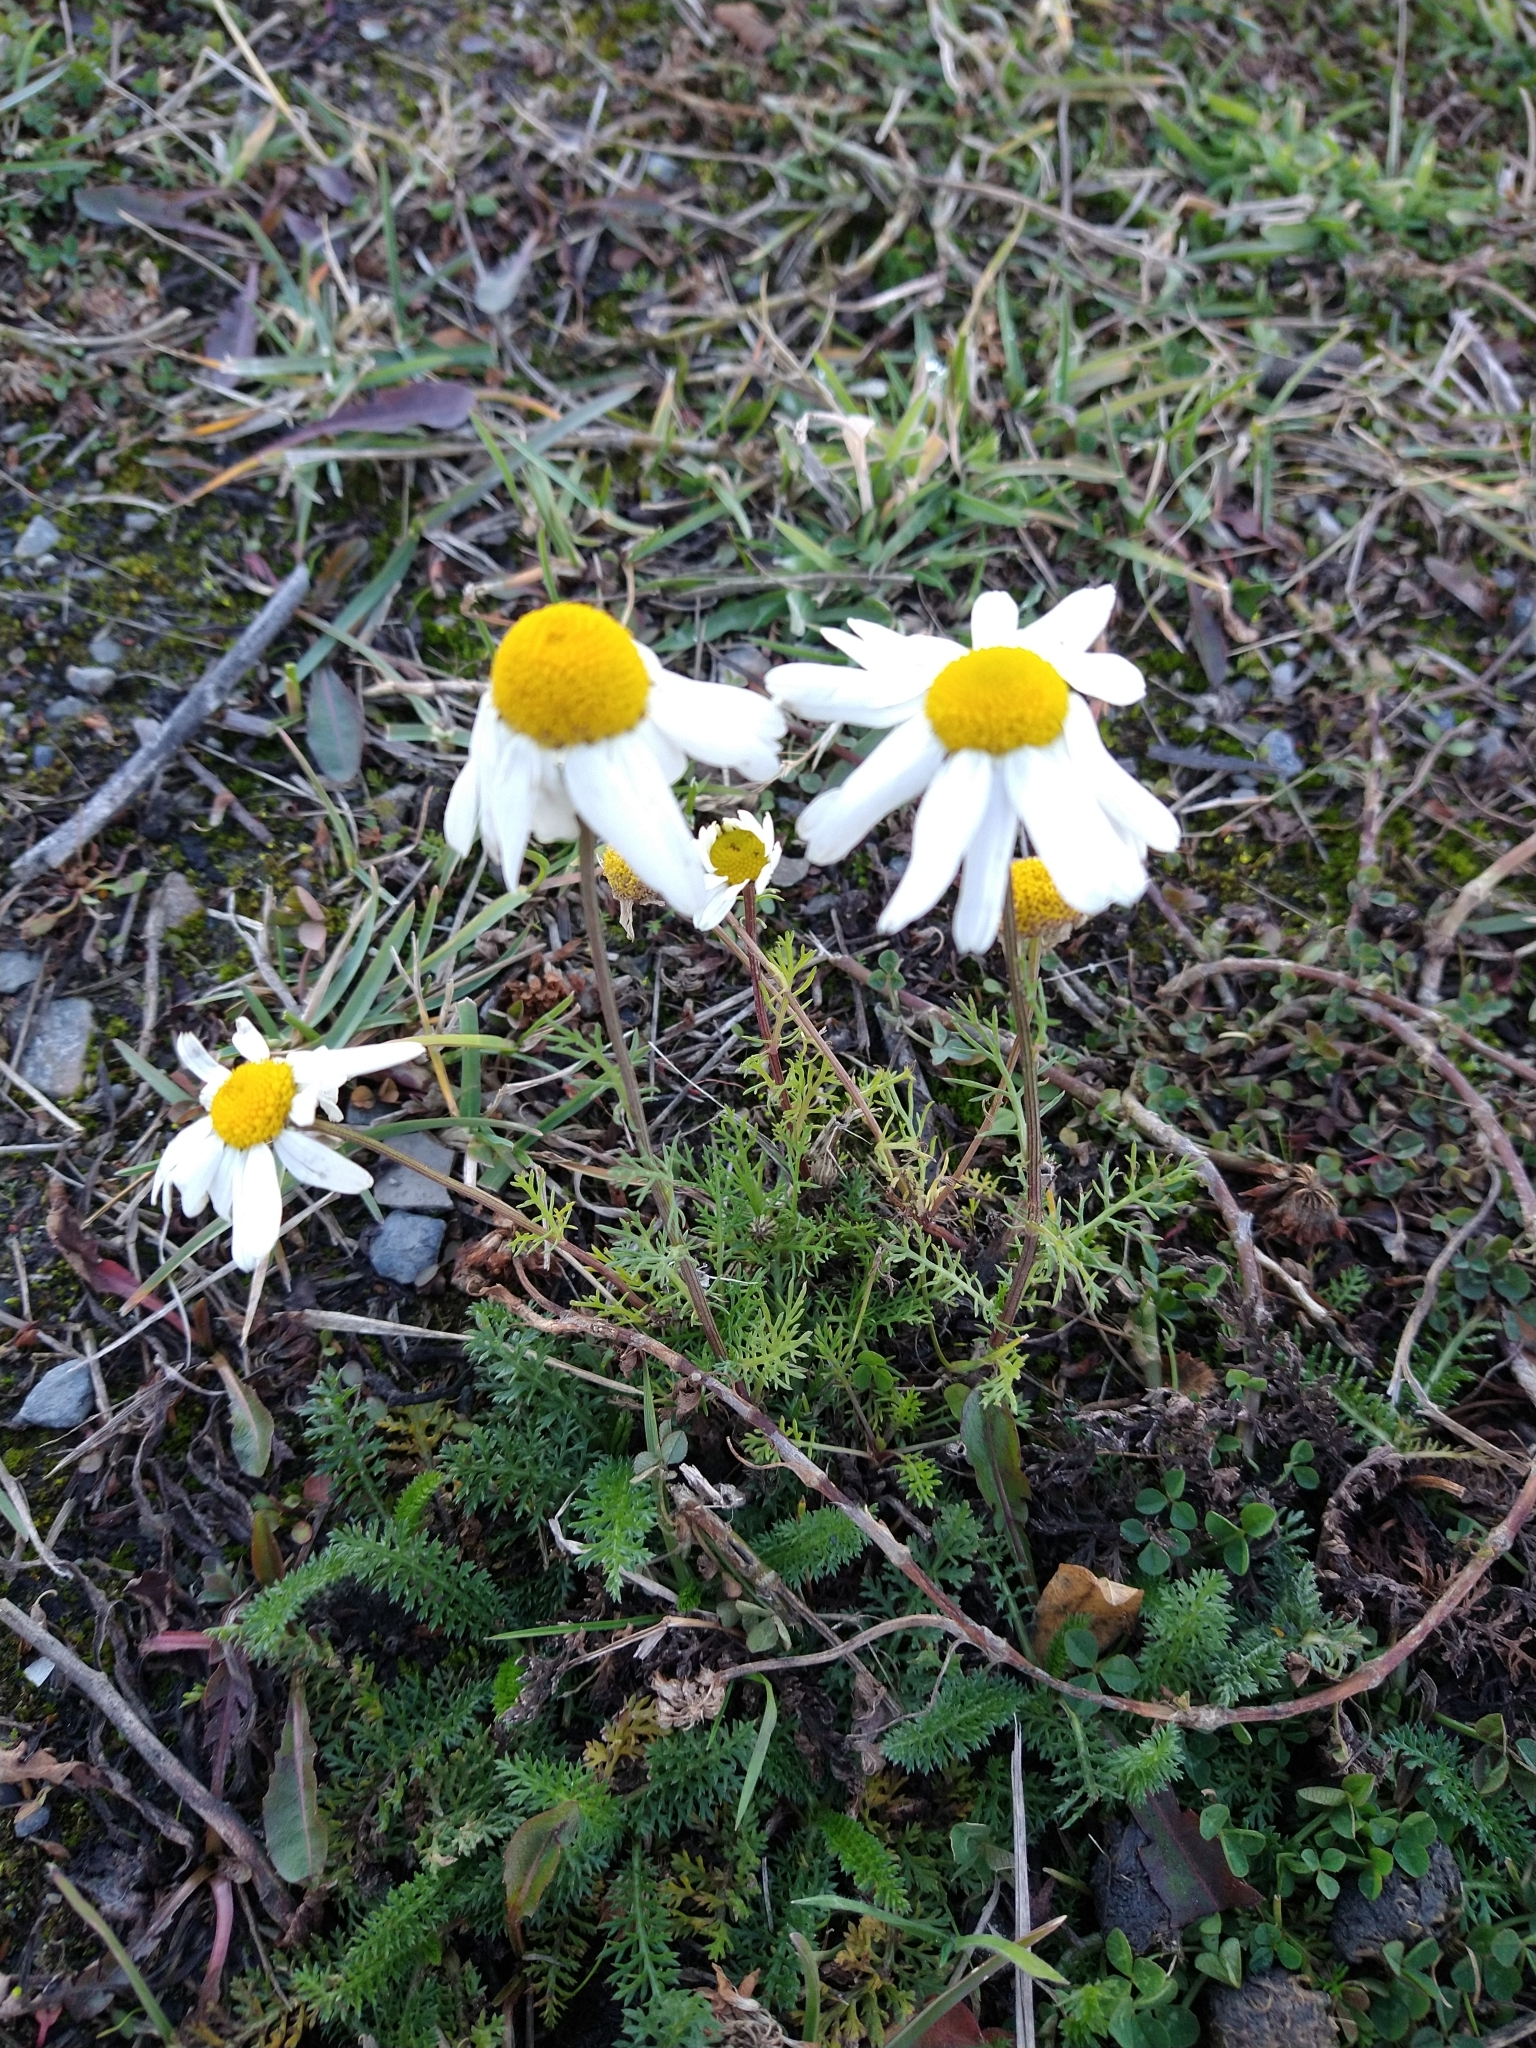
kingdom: Plantae
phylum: Tracheophyta
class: Magnoliopsida
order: Asterales
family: Asteraceae
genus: Tripleurospermum
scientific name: Tripleurospermum
